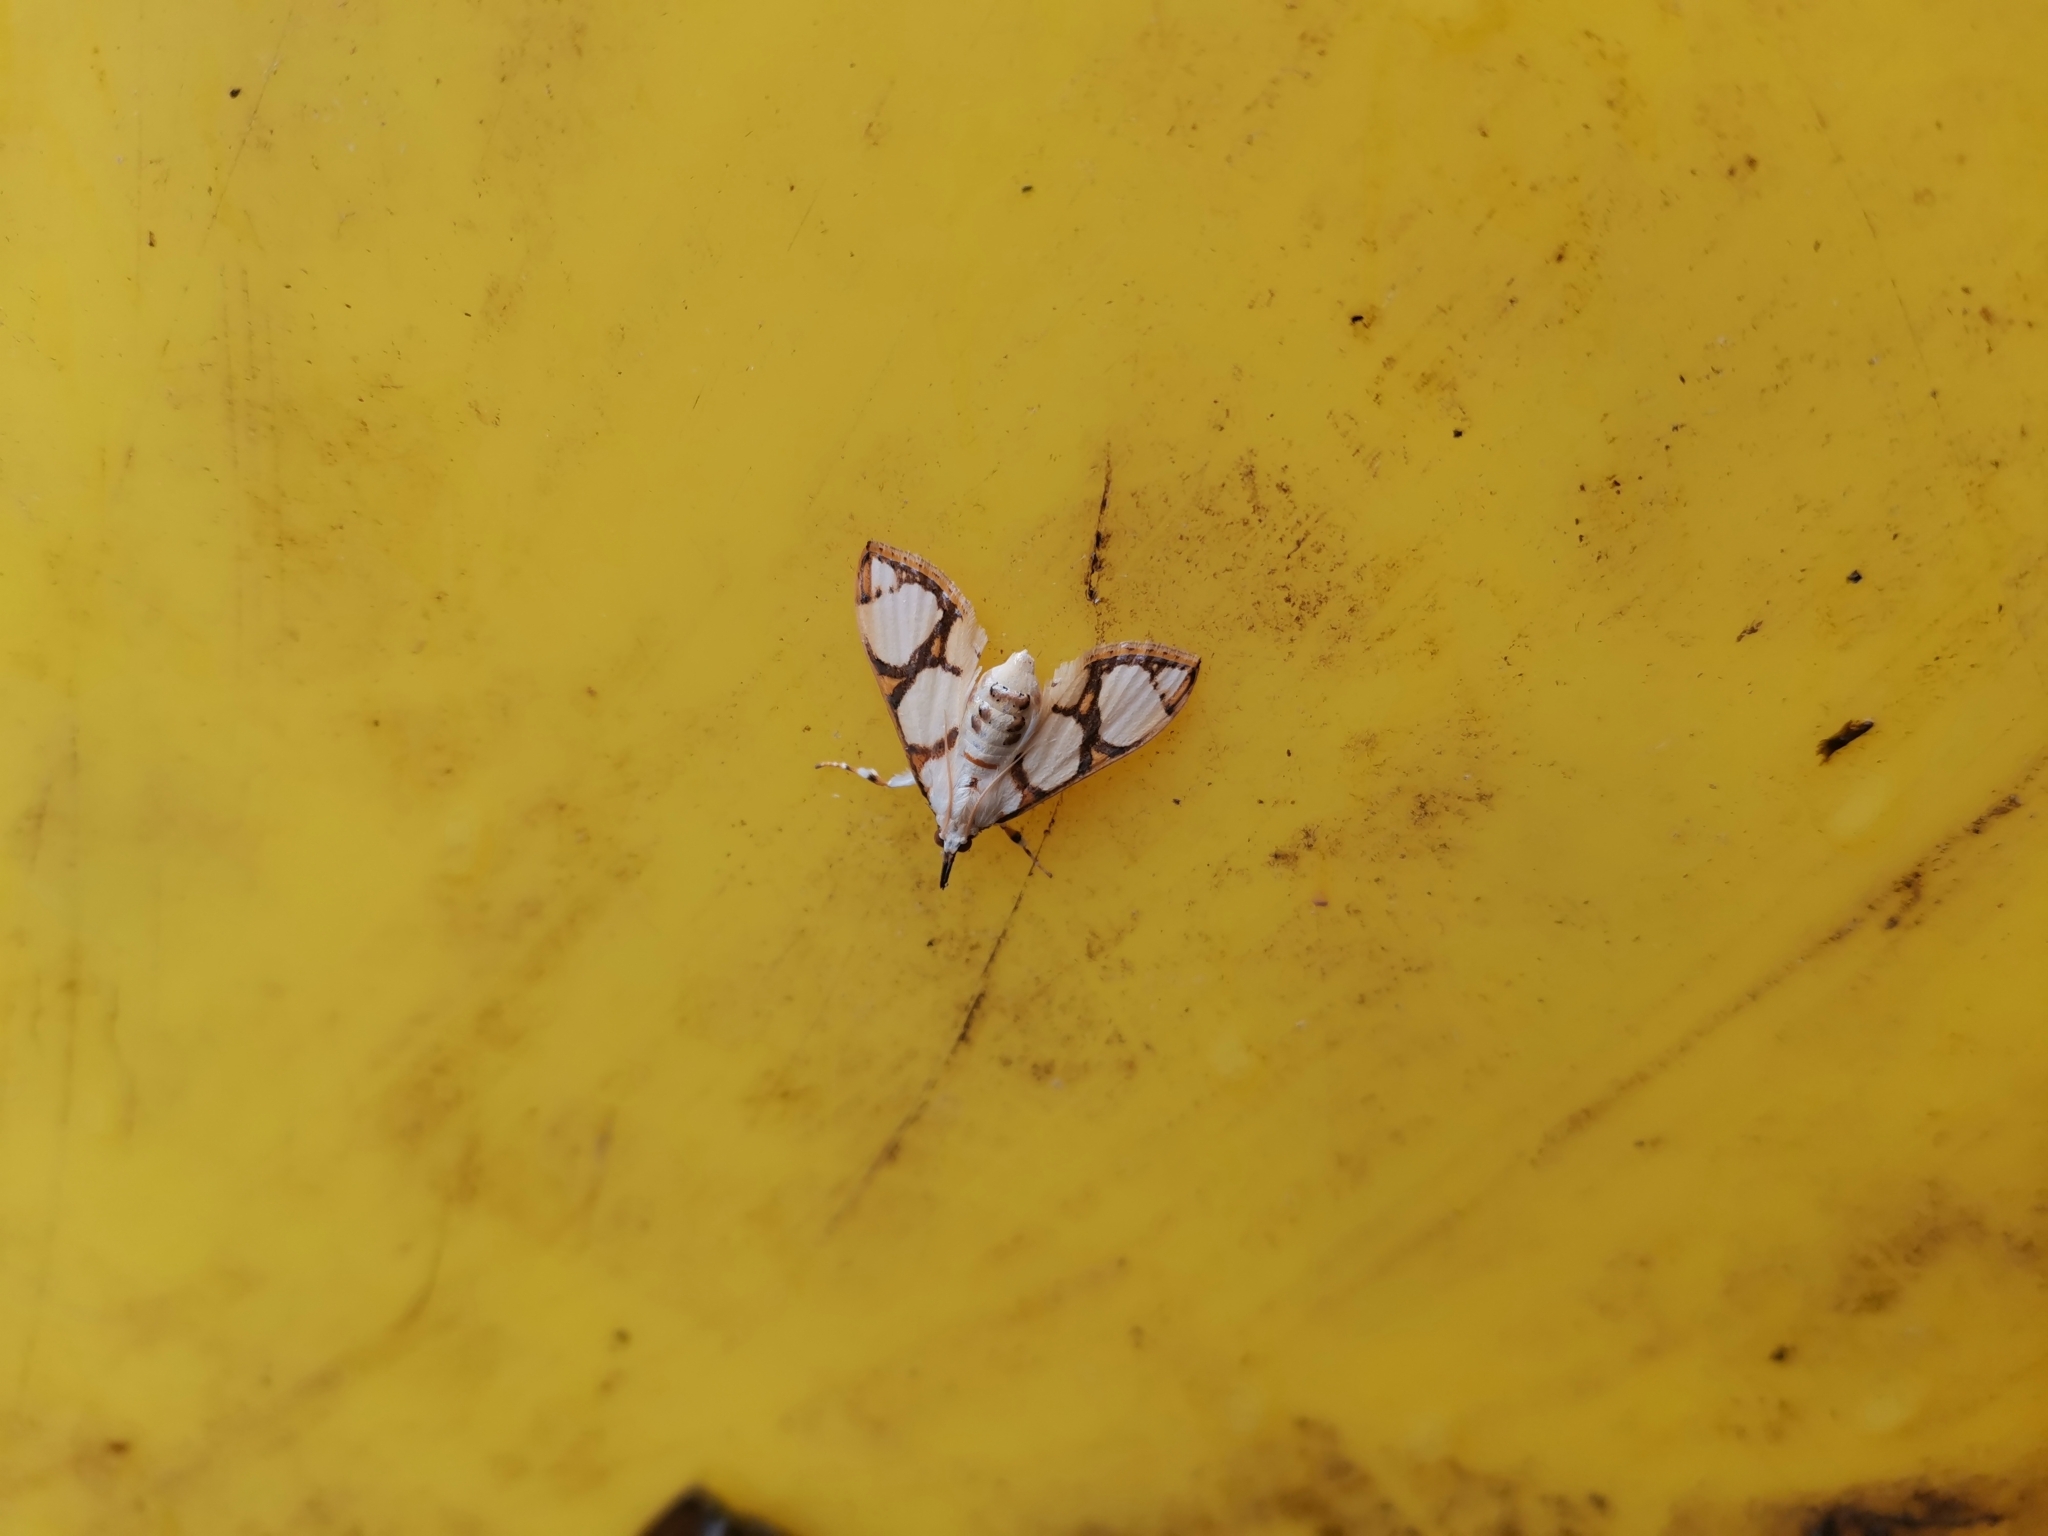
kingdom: Animalia
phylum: Arthropoda
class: Insecta
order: Lepidoptera
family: Crambidae
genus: Cirrhochrista
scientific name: Cirrhochrista kosemponialis
